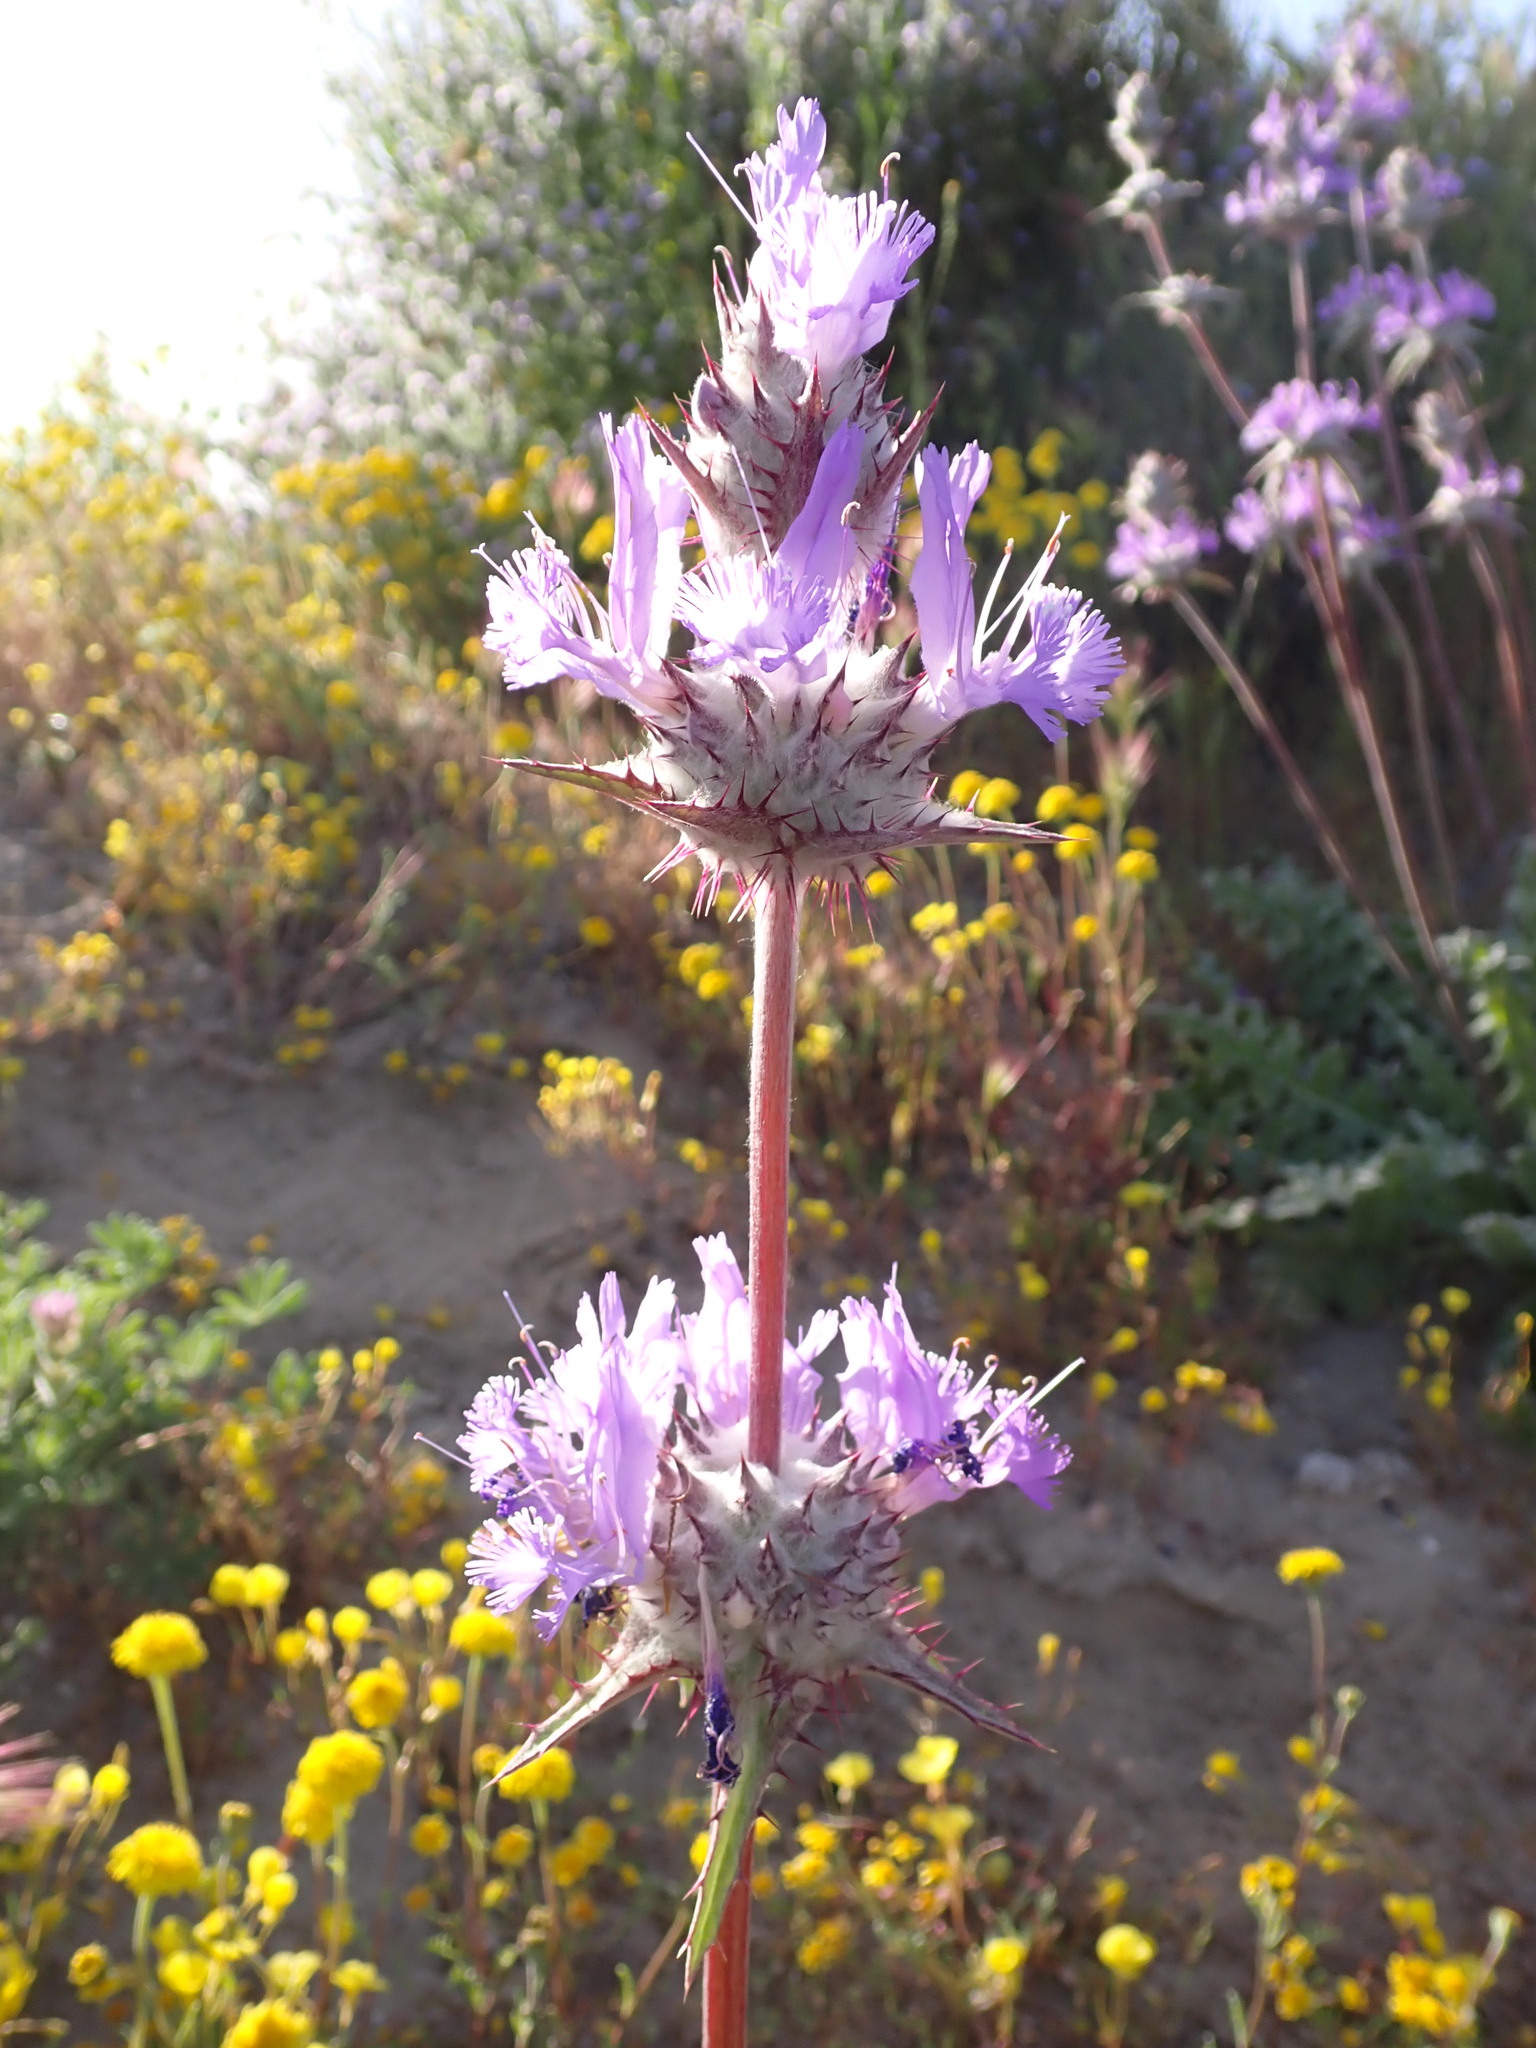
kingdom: Plantae
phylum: Tracheophyta
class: Magnoliopsida
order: Lamiales
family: Lamiaceae
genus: Salvia
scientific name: Salvia carduacea
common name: Thistle sage
